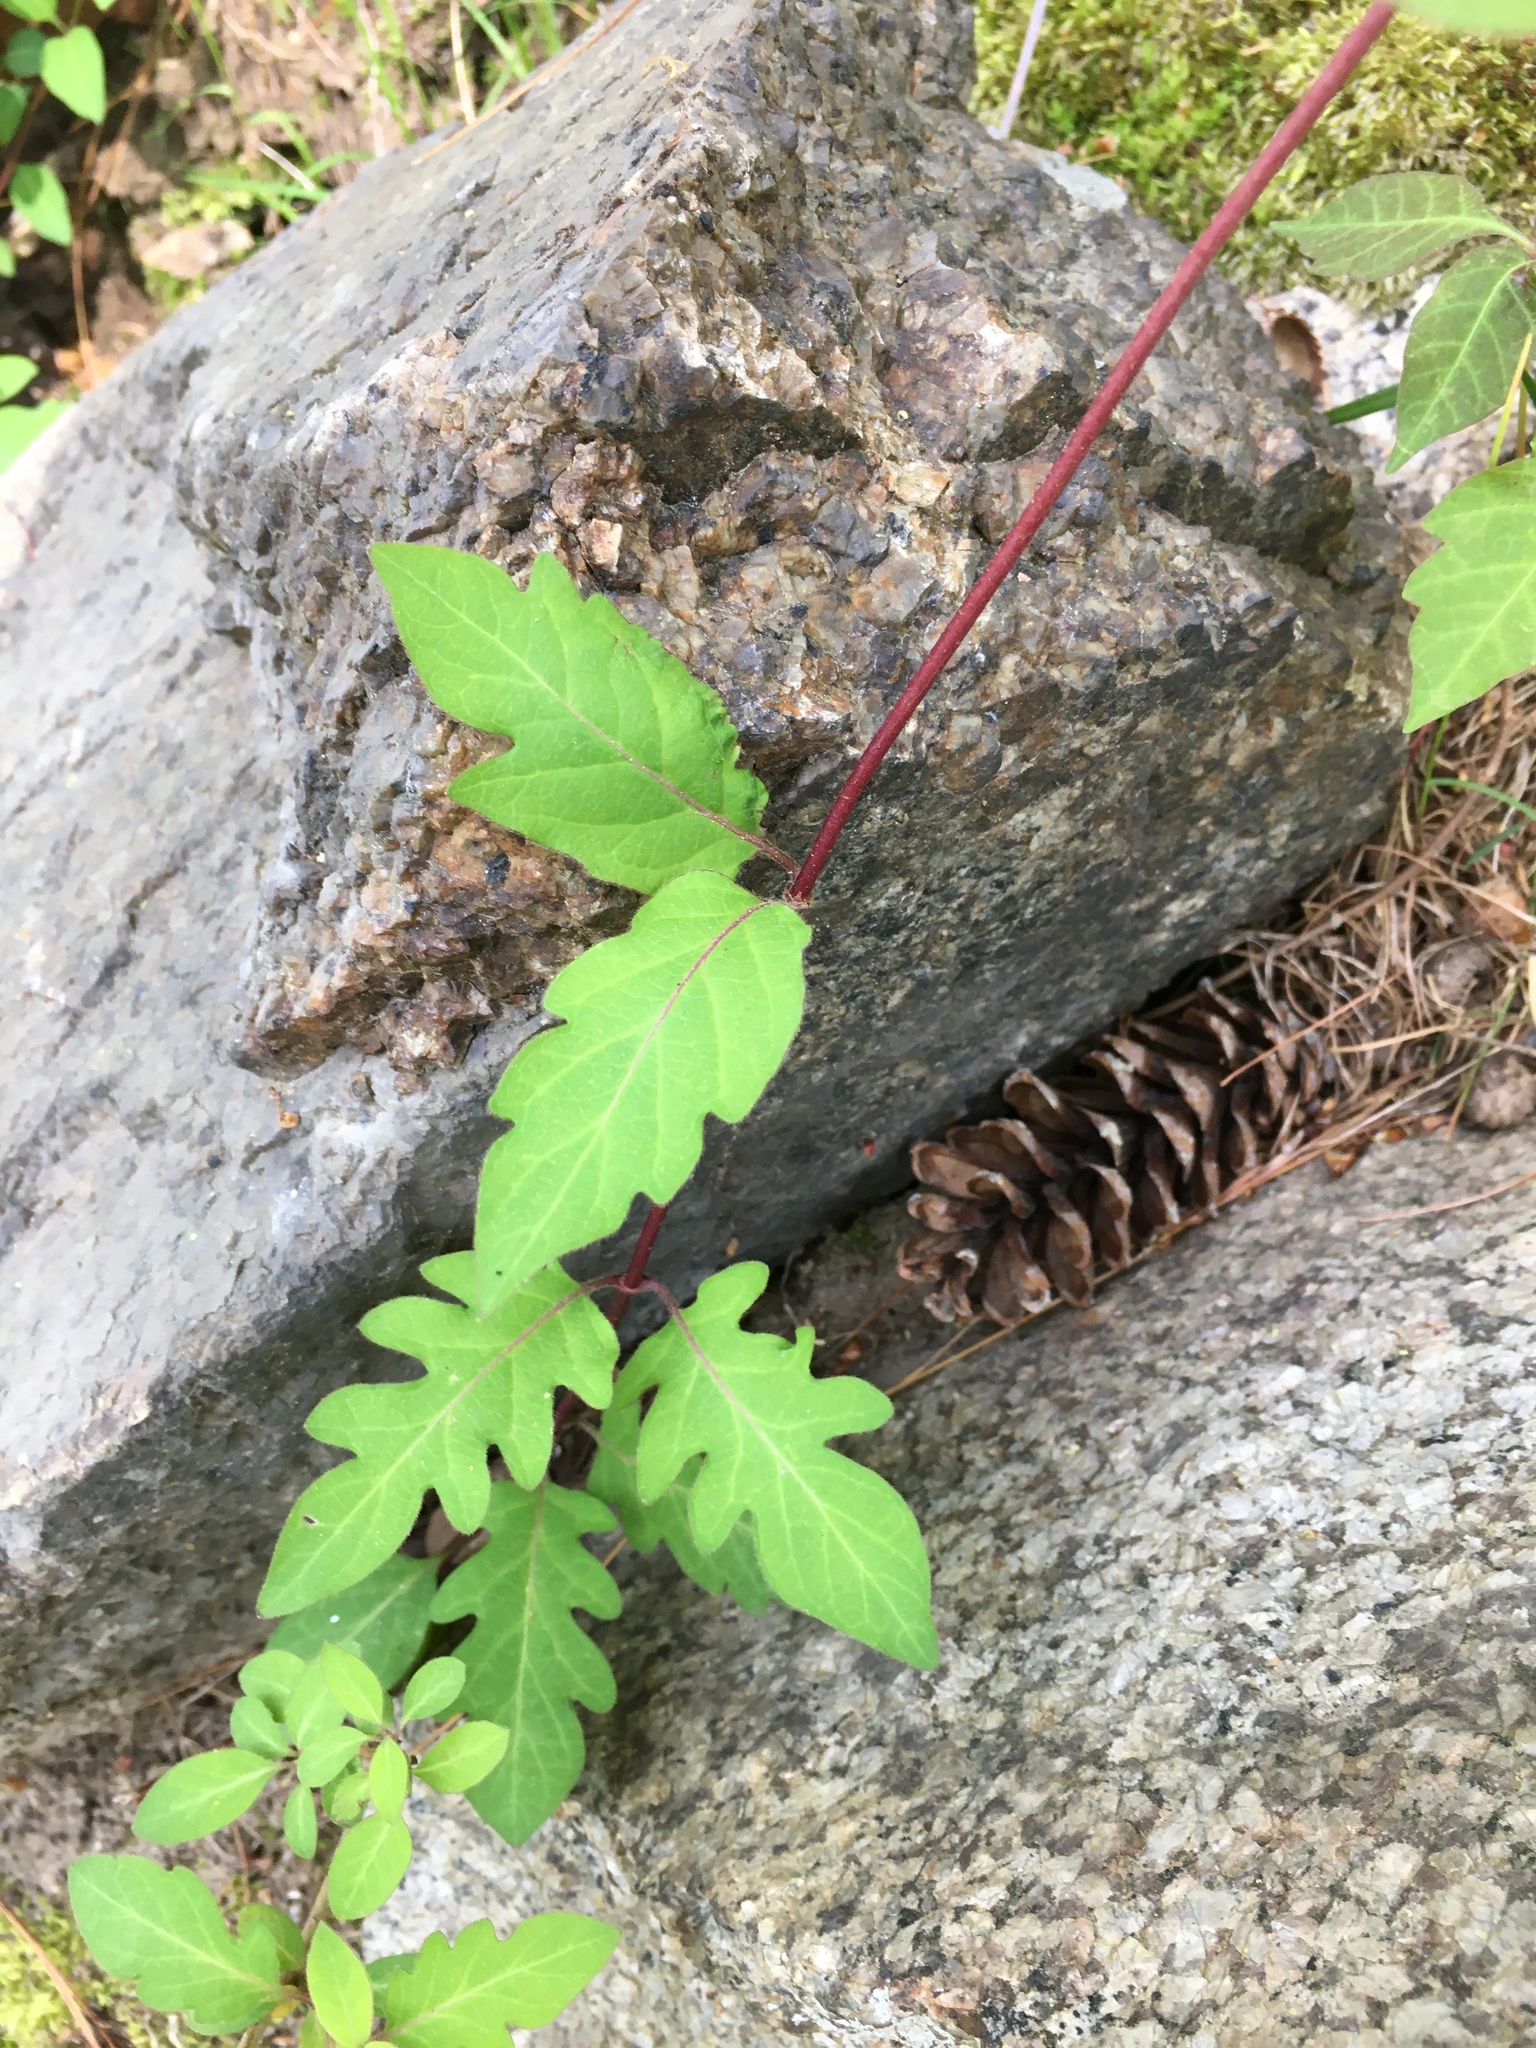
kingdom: Plantae
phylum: Tracheophyta
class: Magnoliopsida
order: Dipsacales
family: Caprifoliaceae
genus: Lonicera
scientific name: Lonicera japonica
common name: Japanese honeysuckle
